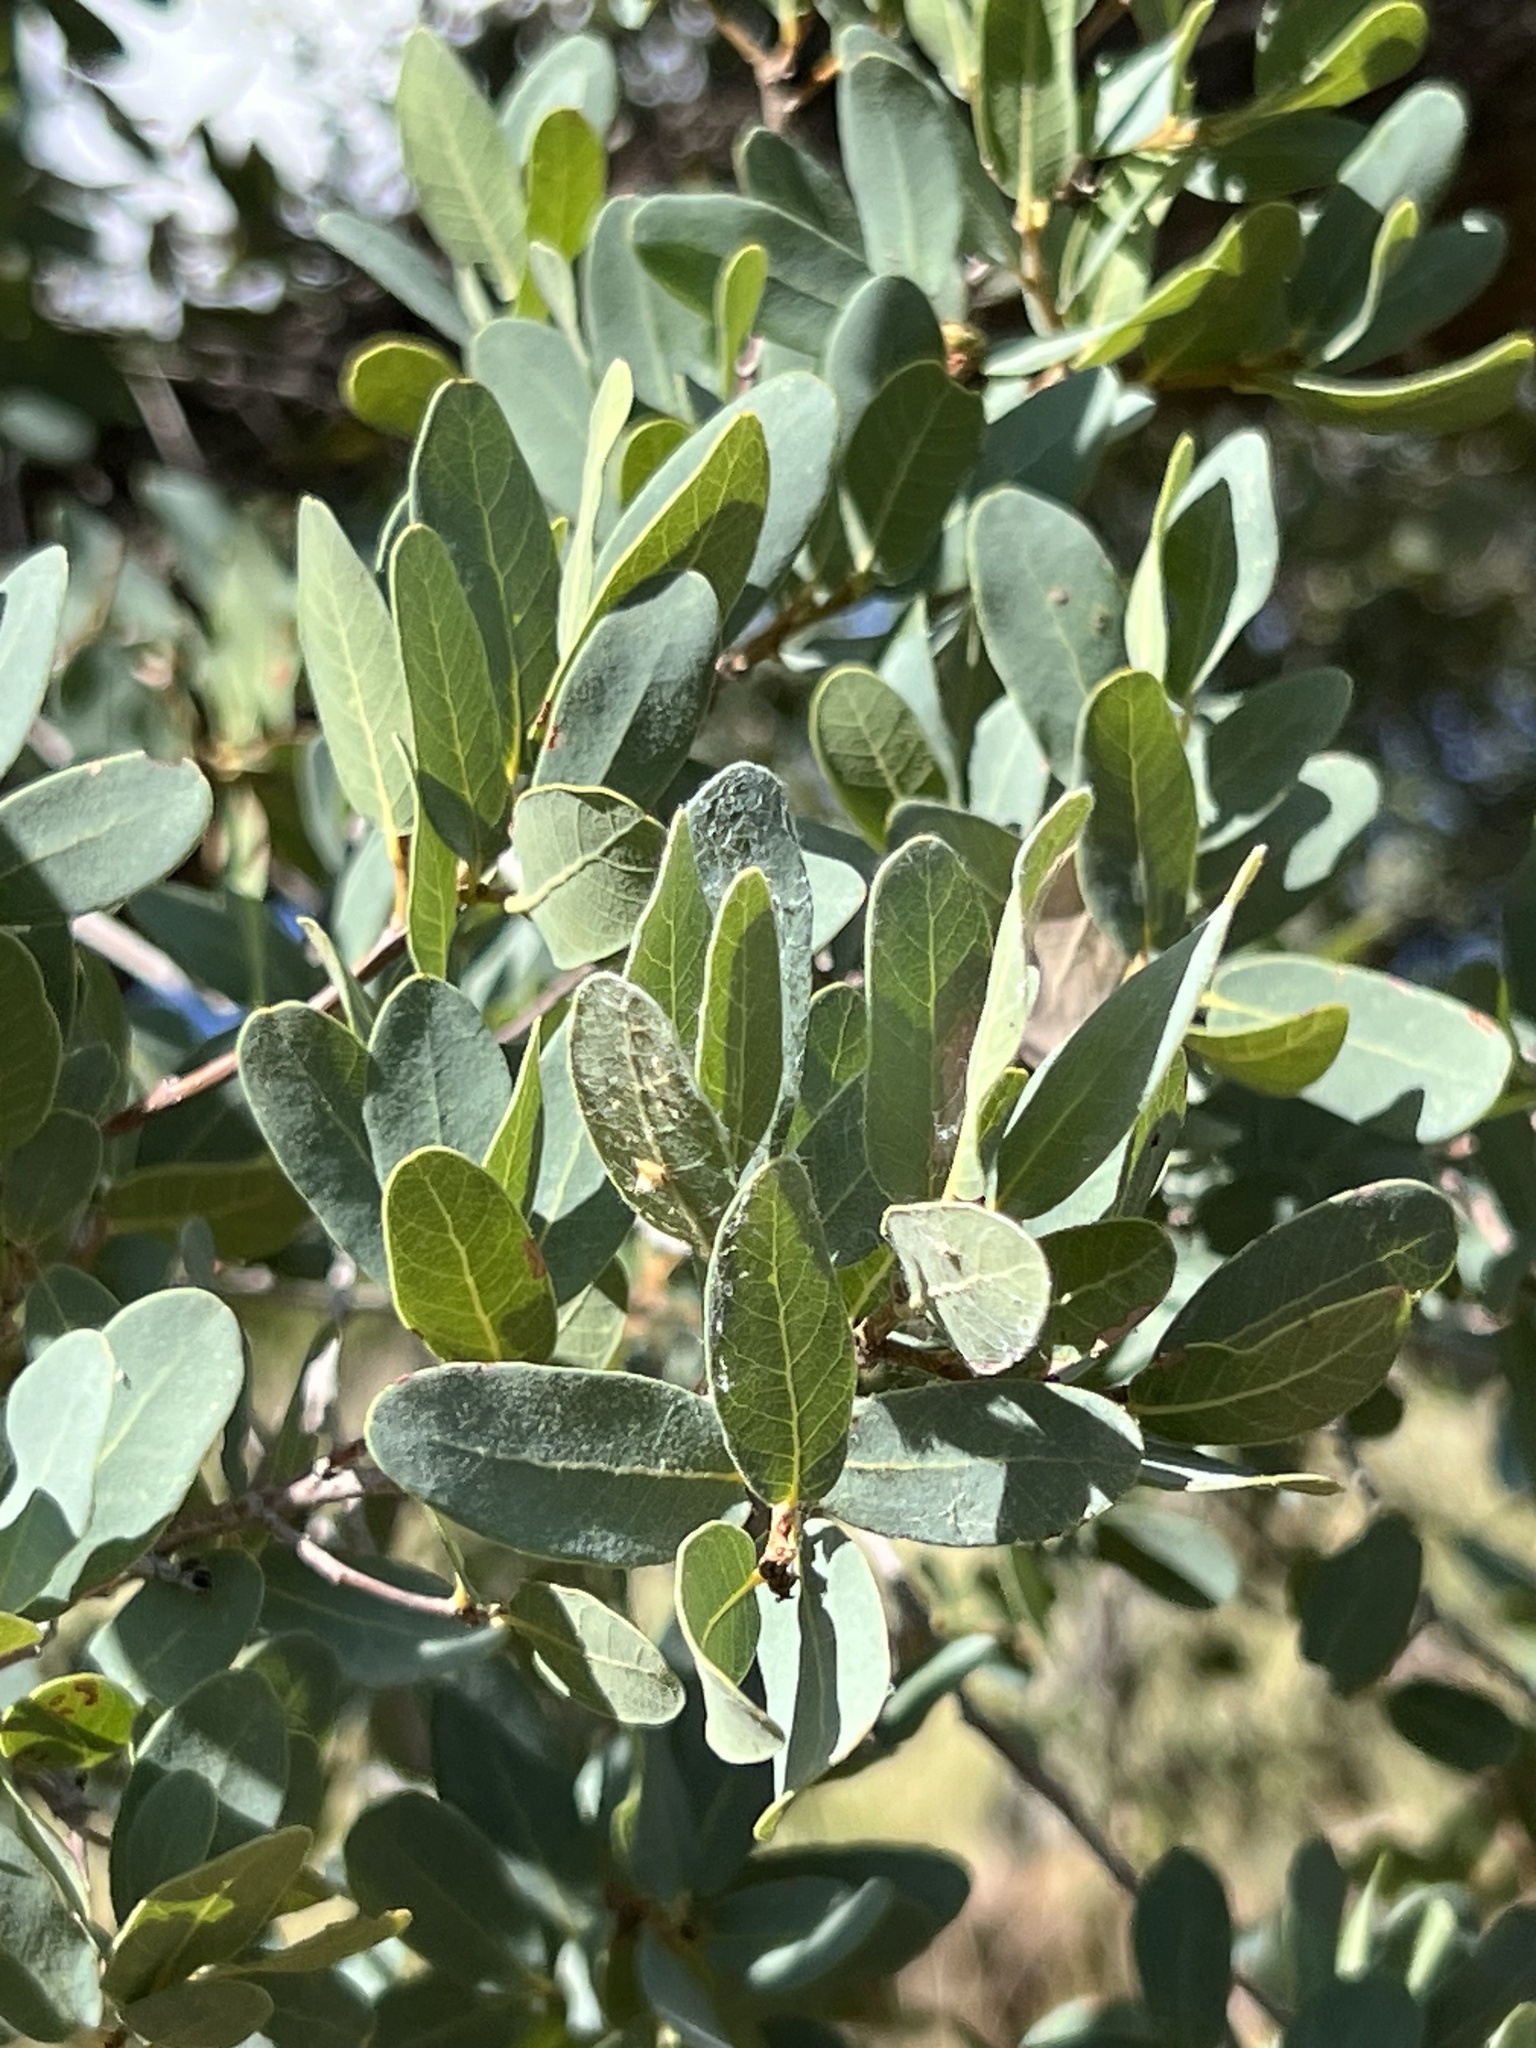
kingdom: Plantae
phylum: Tracheophyta
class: Magnoliopsida
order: Fagales
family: Fagaceae
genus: Quercus
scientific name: Quercus oblongifolia
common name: Mexican blue oak
